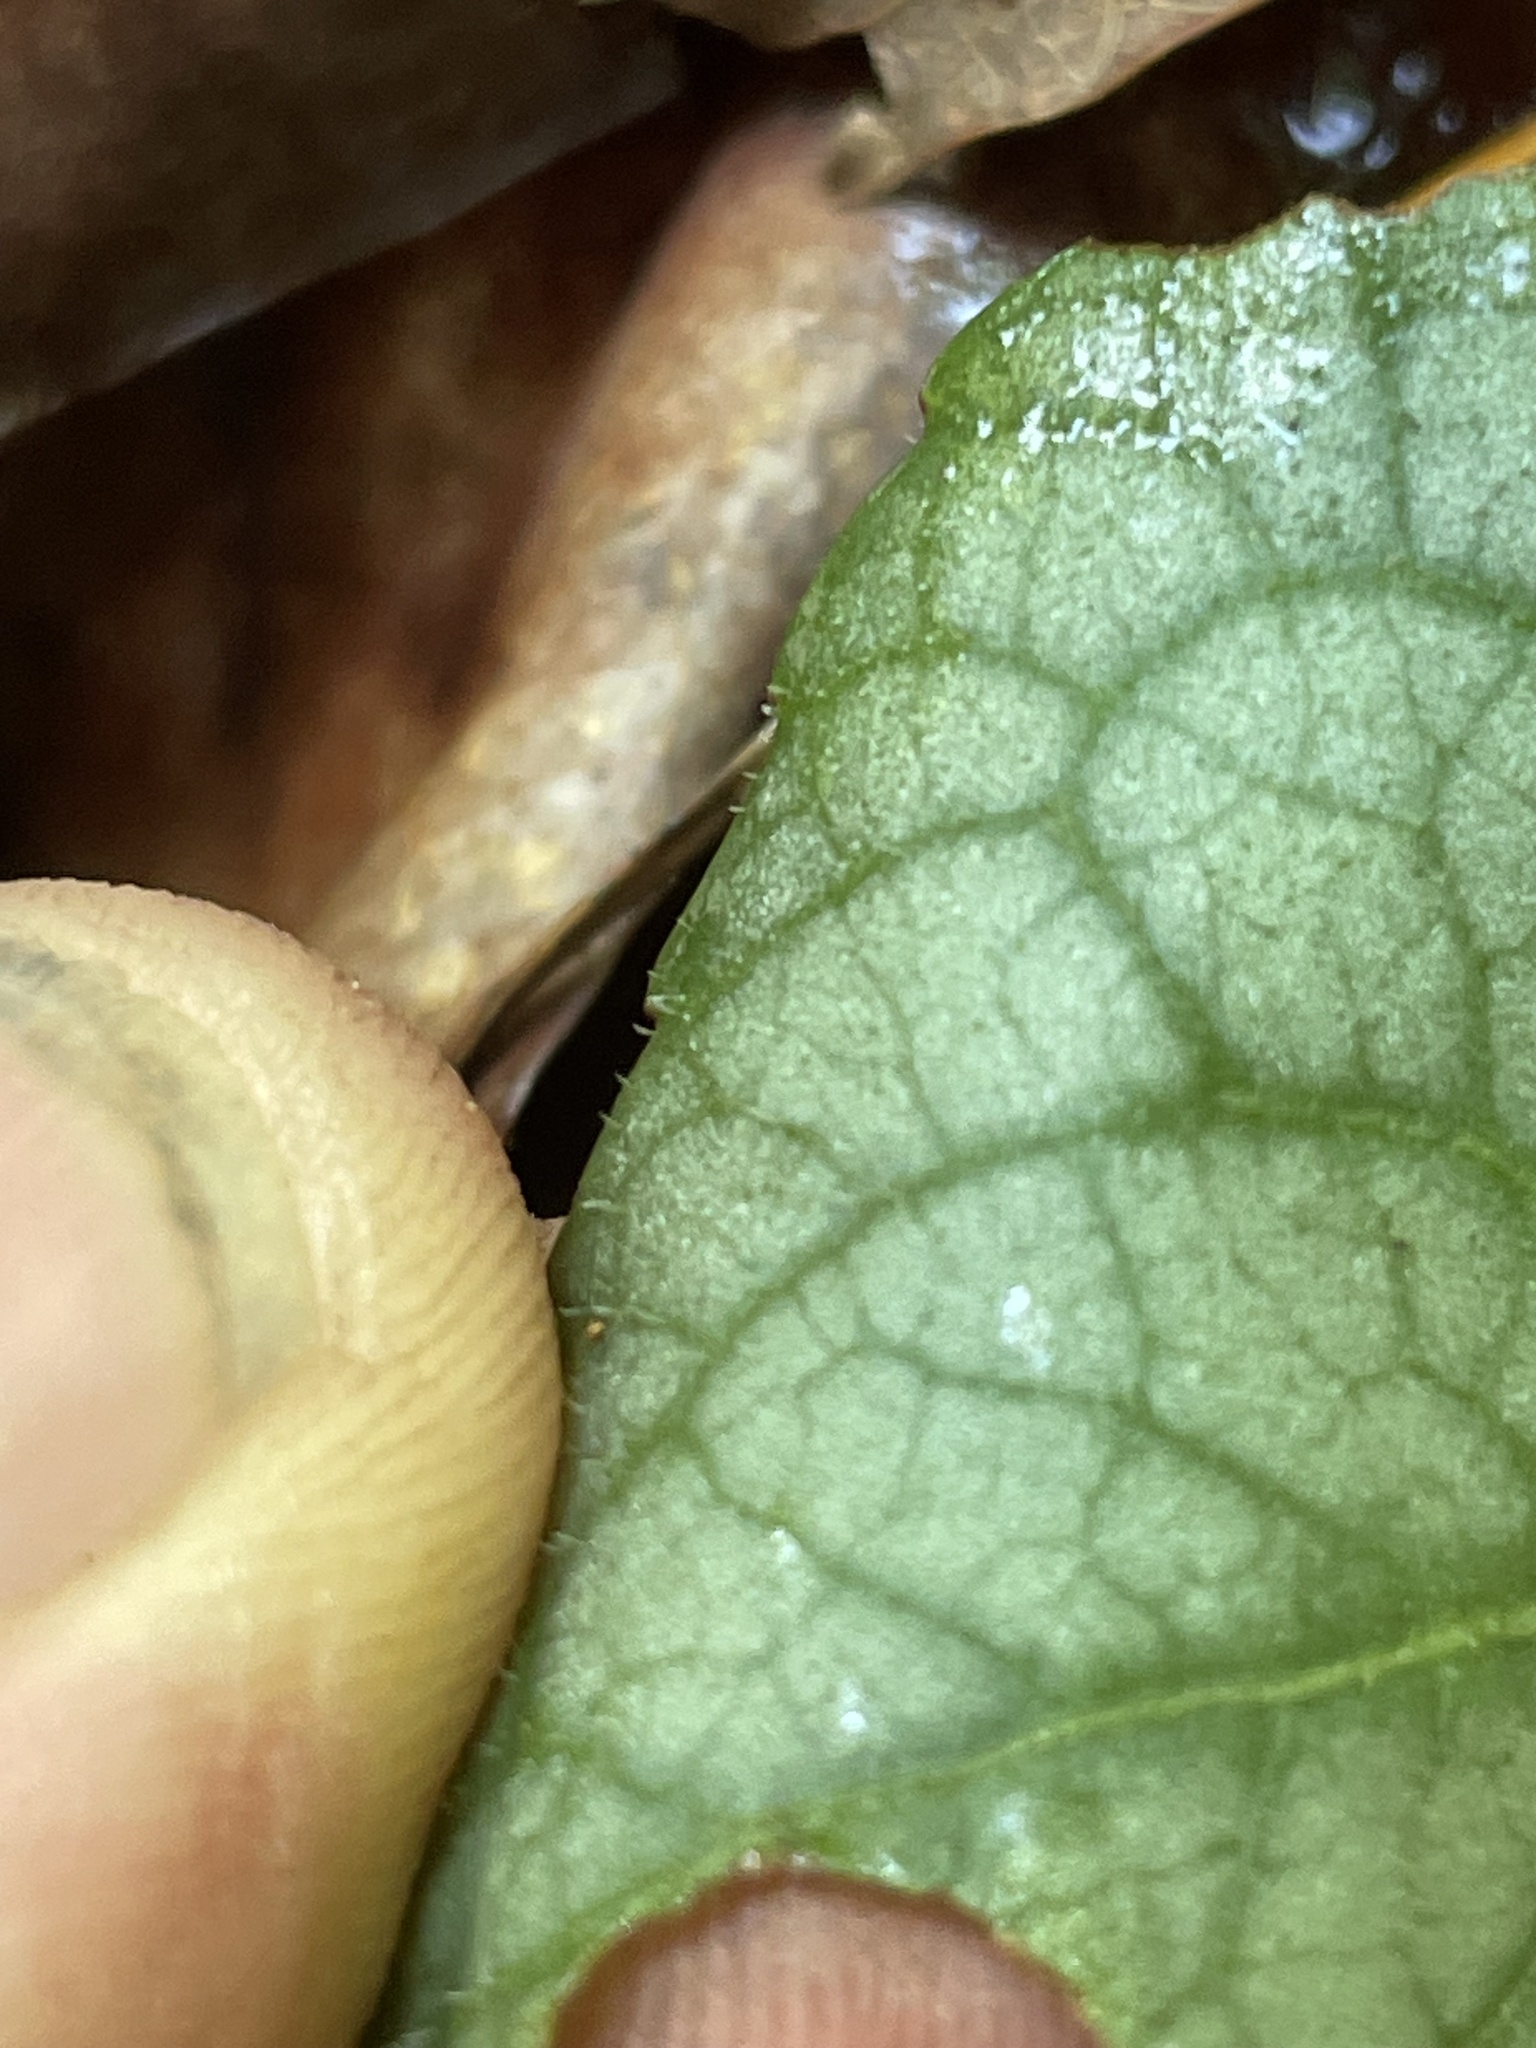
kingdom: Plantae
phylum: Tracheophyta
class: Magnoliopsida
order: Malpighiales
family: Violaceae
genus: Viola
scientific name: Viola hirsutula
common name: Southern wood violet
